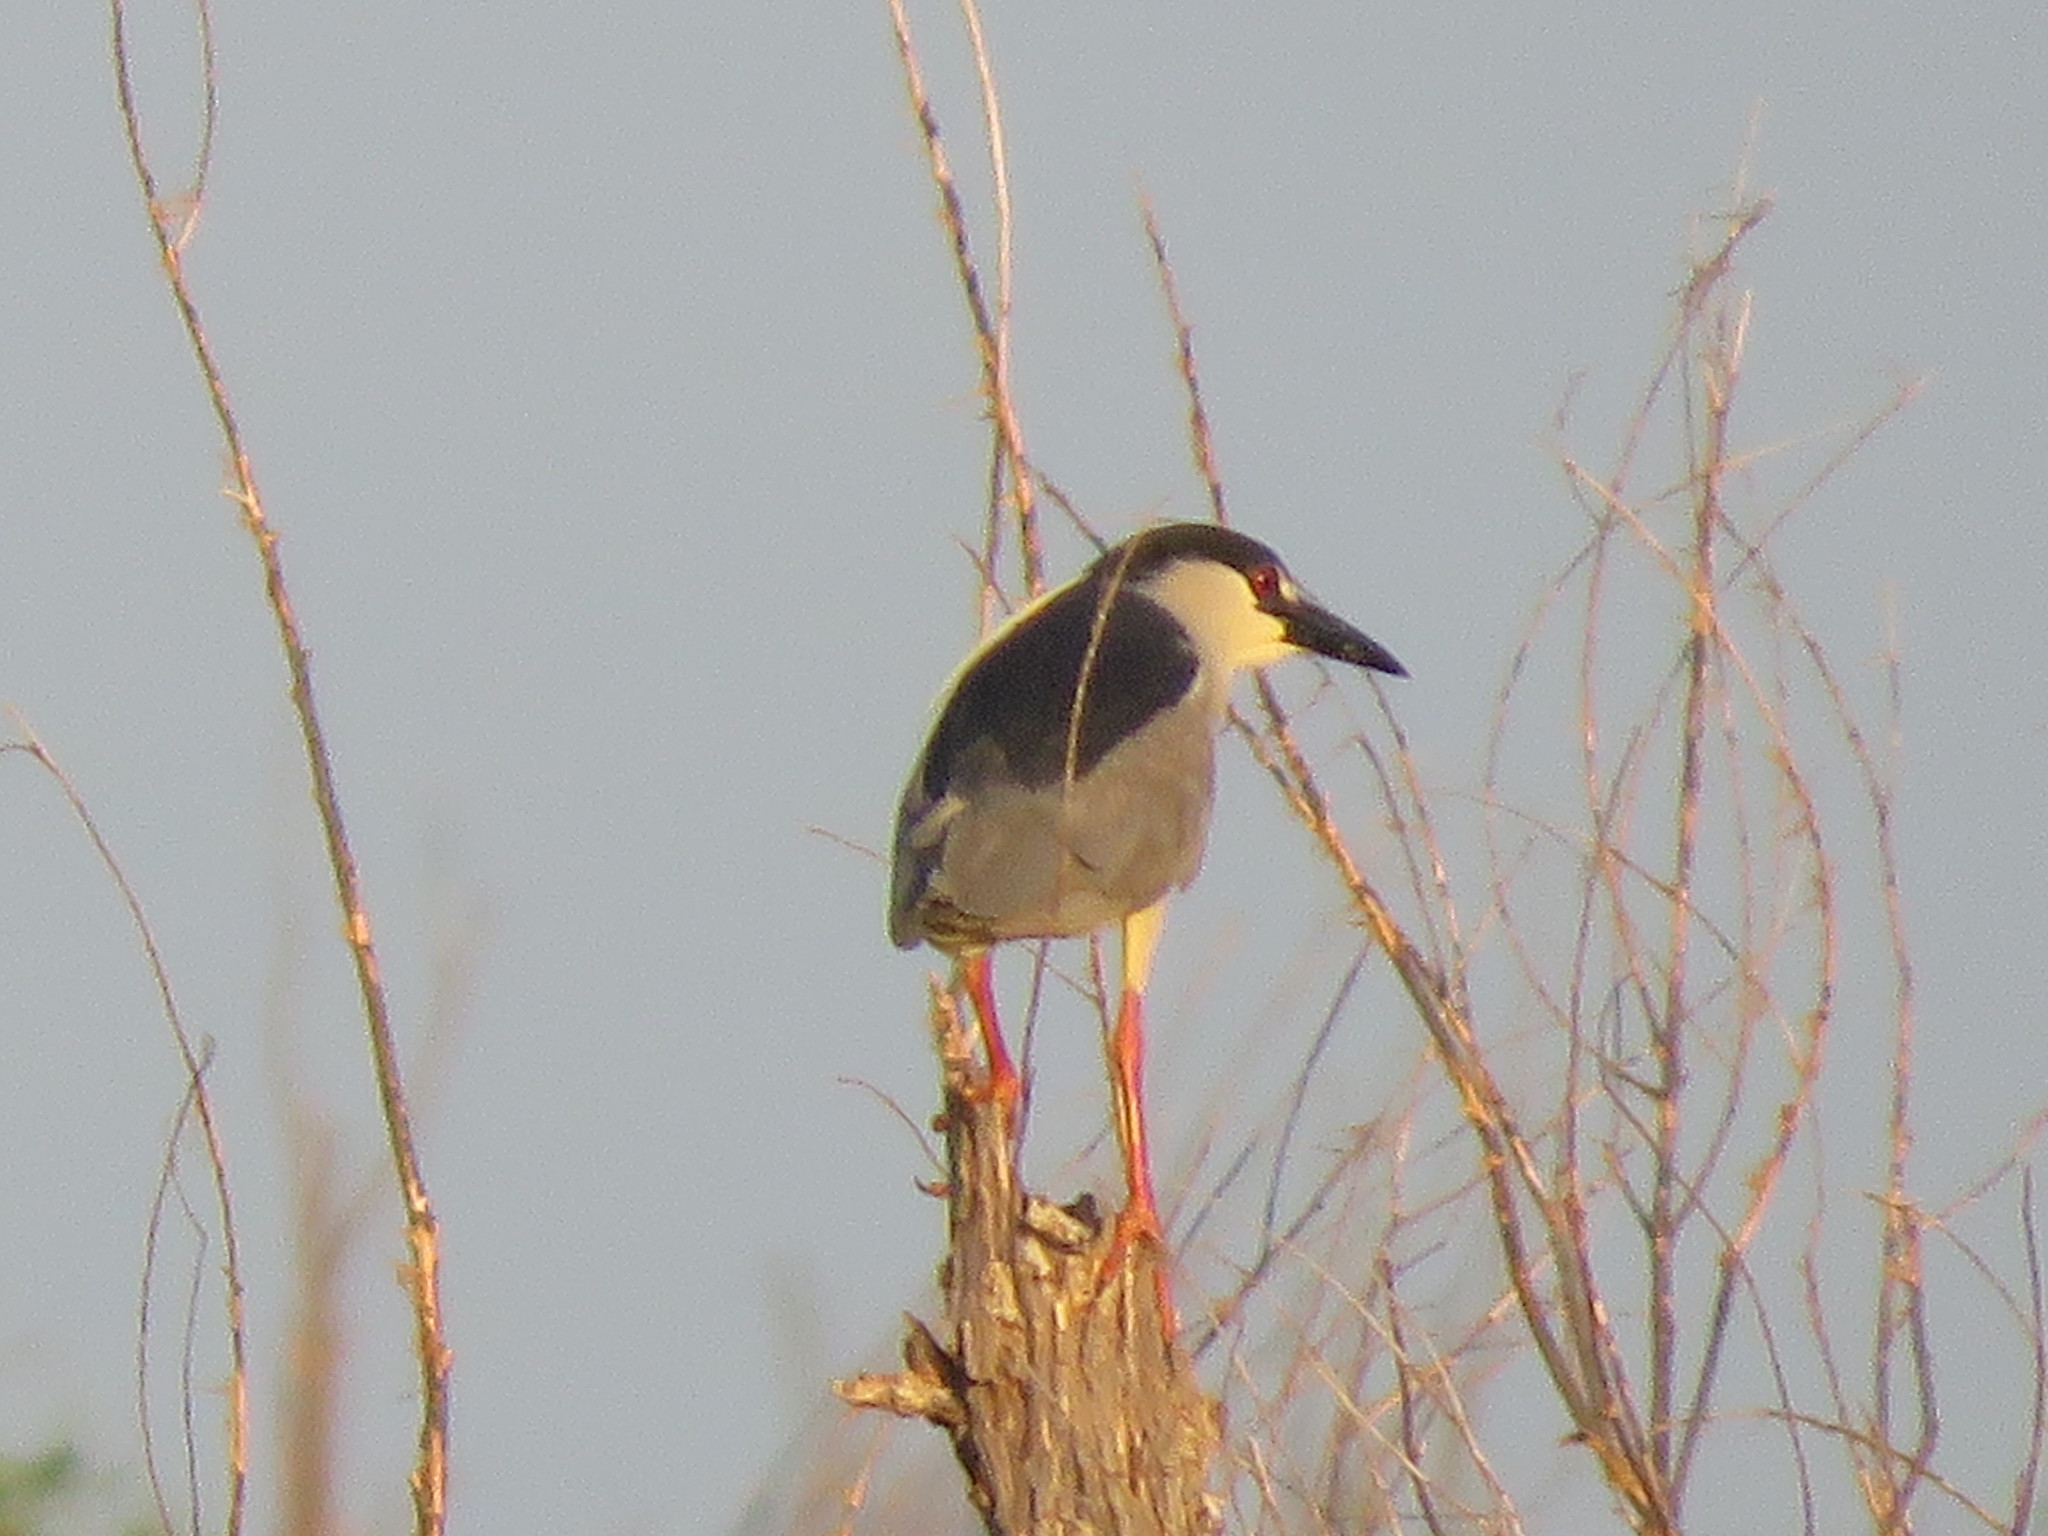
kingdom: Animalia
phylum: Chordata
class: Aves
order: Pelecaniformes
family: Ardeidae
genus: Nycticorax
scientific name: Nycticorax nycticorax
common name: Black-crowned night heron
